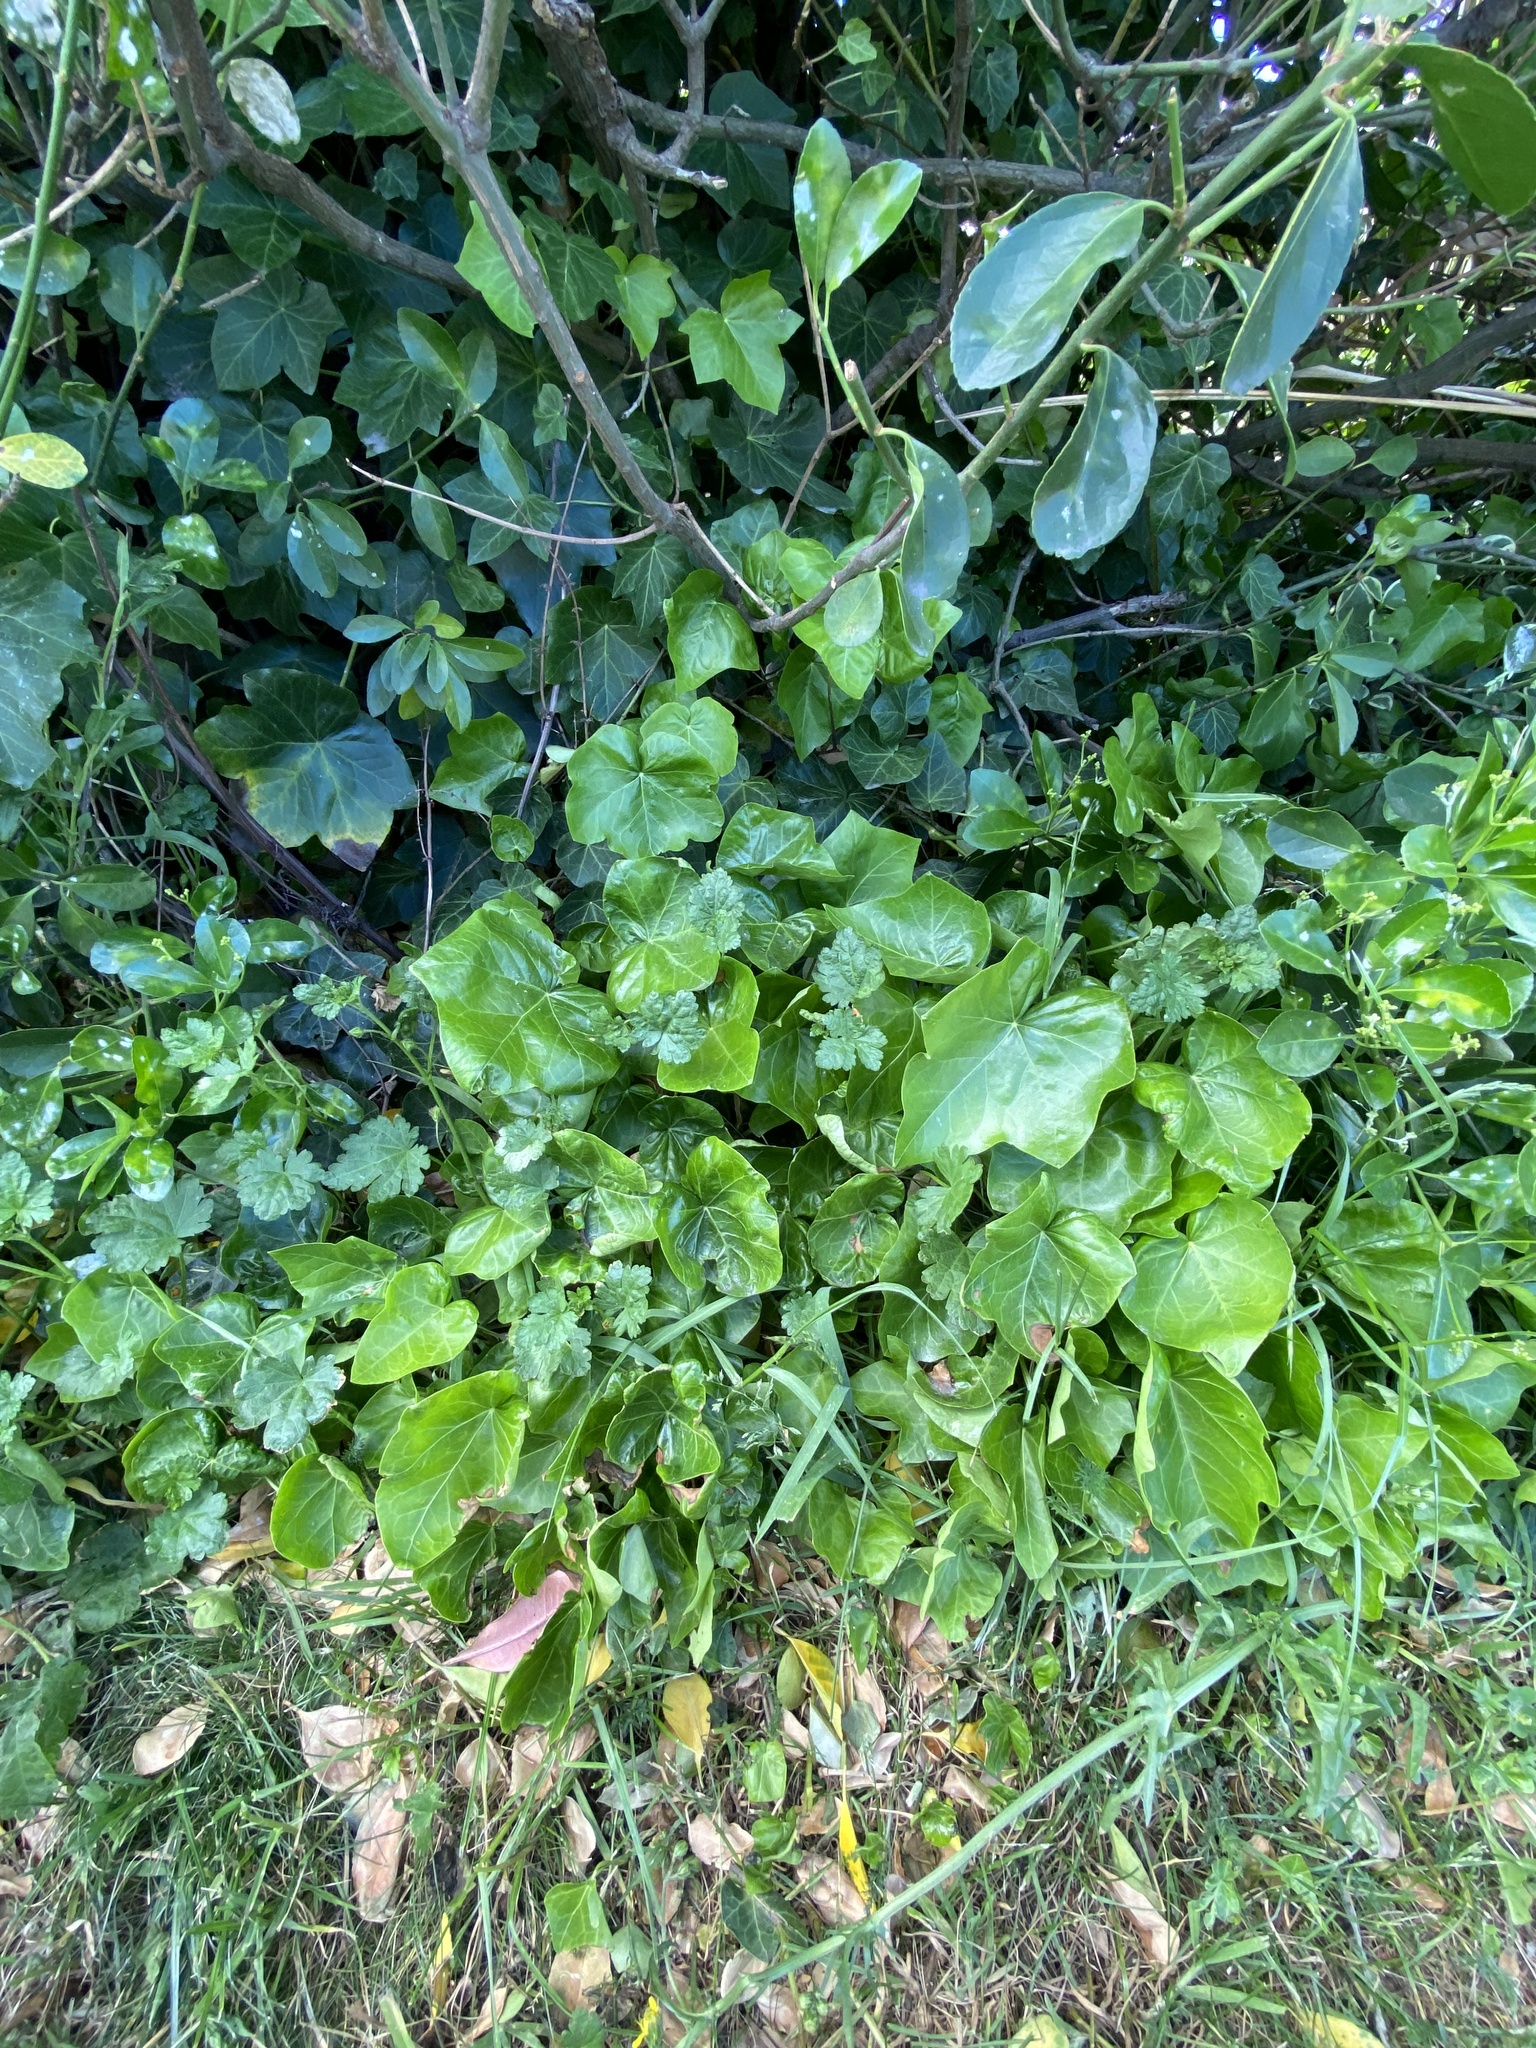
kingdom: Plantae
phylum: Tracheophyta
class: Magnoliopsida
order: Malvales
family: Malvaceae
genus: Modiola
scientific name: Modiola caroliniana
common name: Carolina bristlemallow
